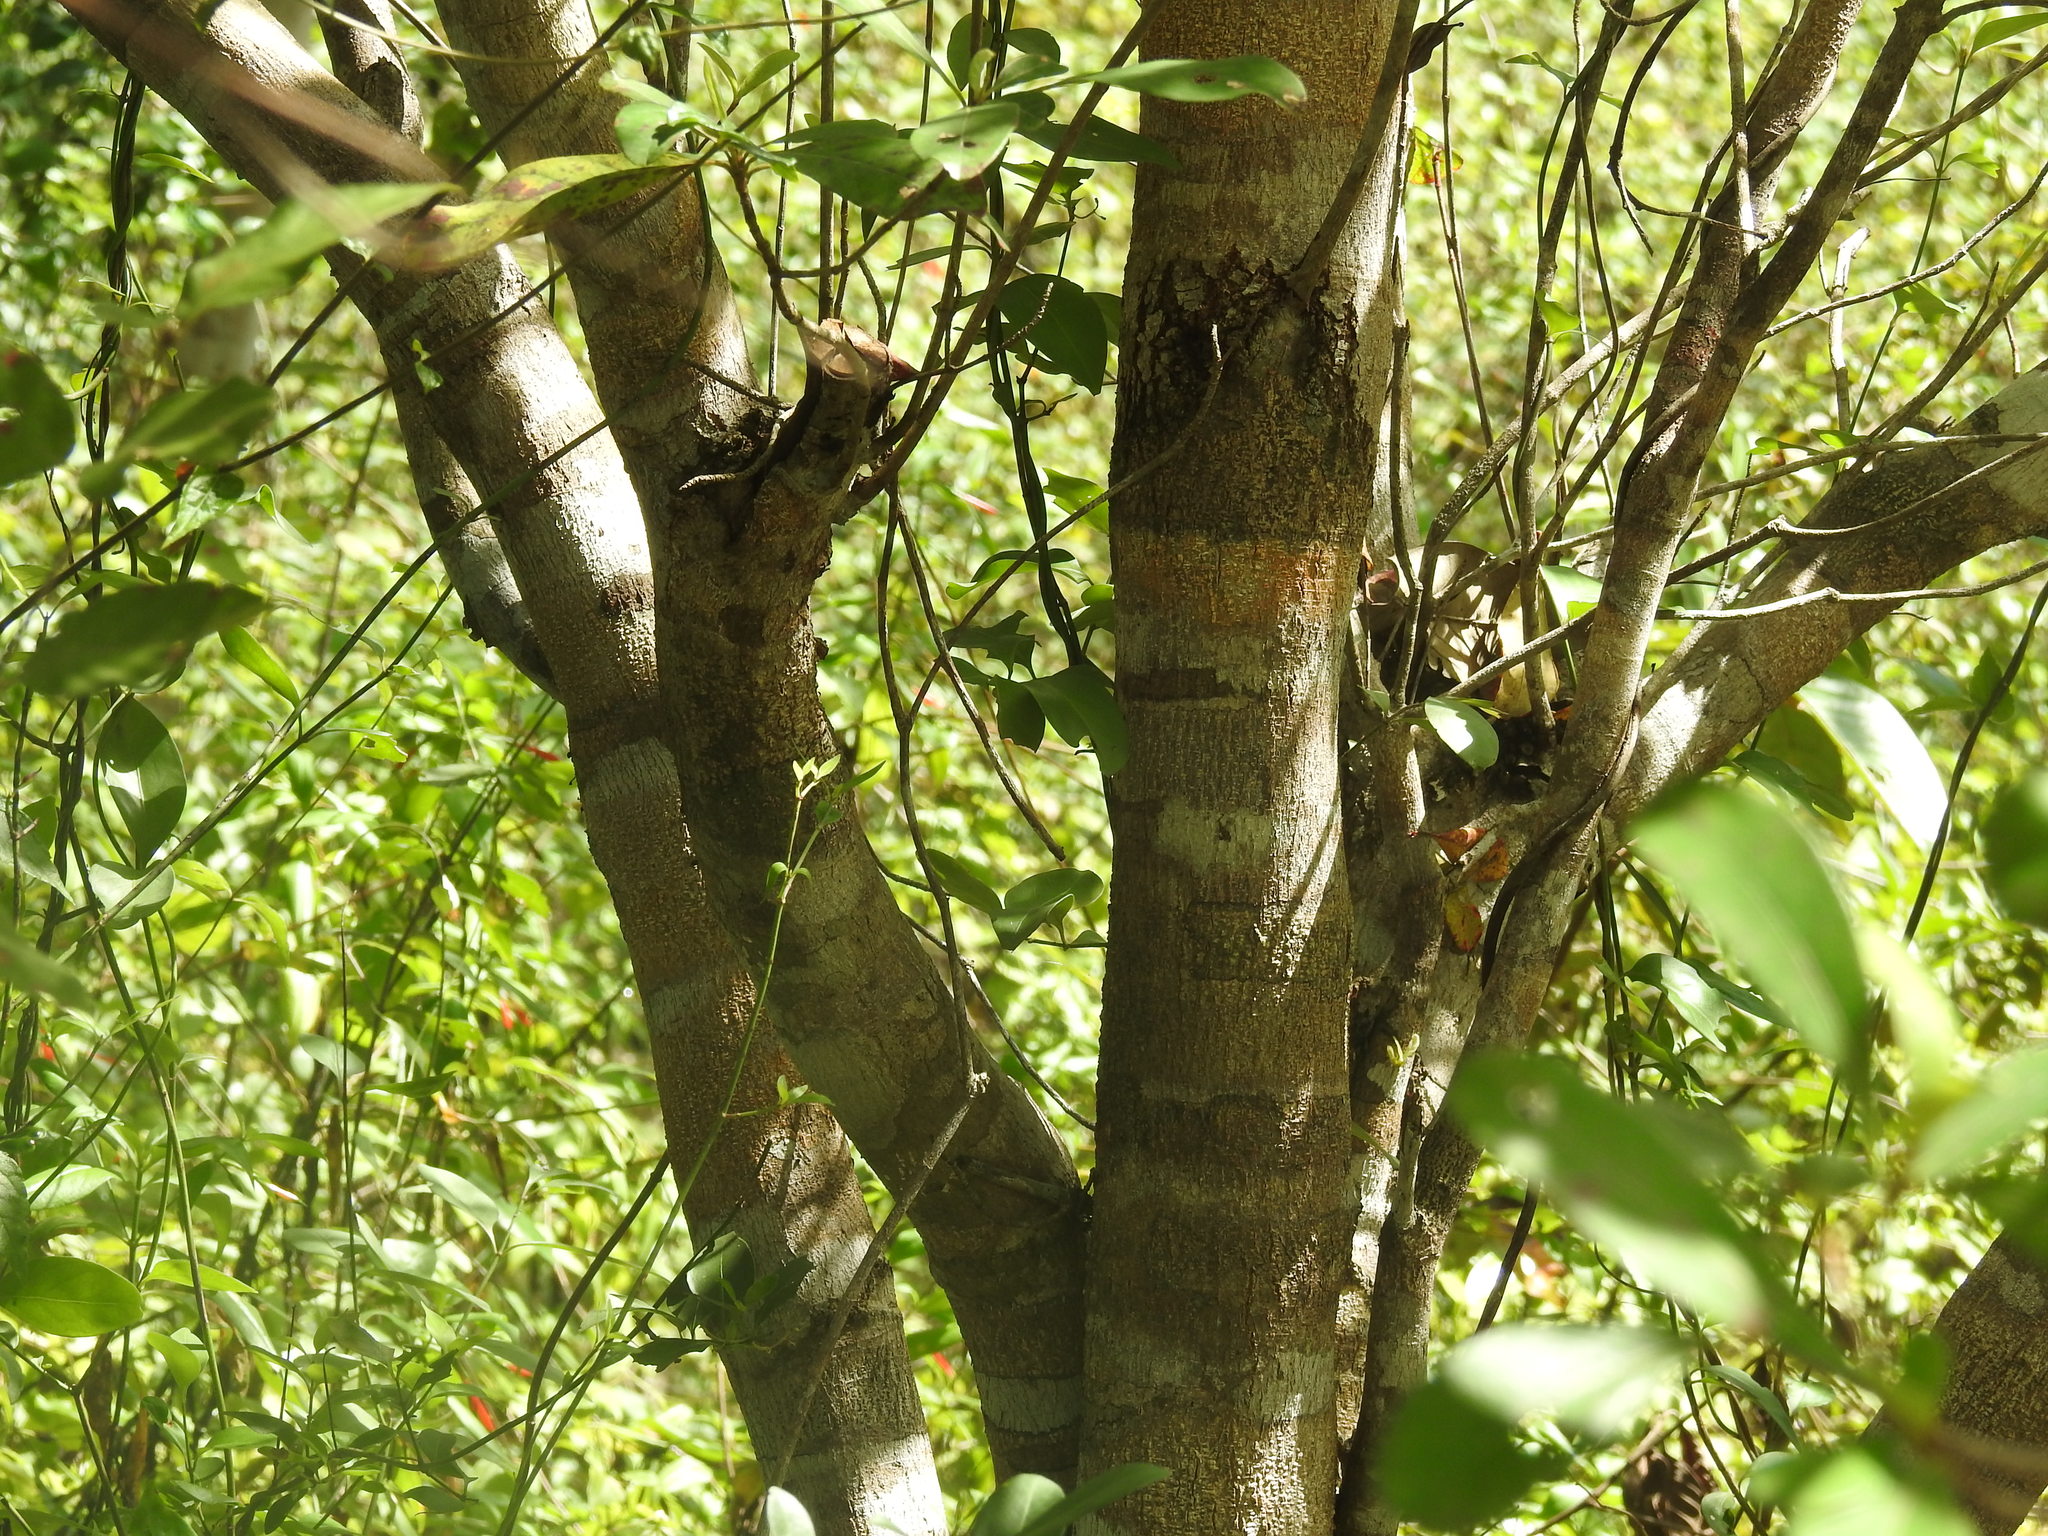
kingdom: Plantae
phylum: Tracheophyta
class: Magnoliopsida
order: Malpighiales
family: Malpighiaceae
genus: Byrsonima
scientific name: Byrsonima bucidifolia
